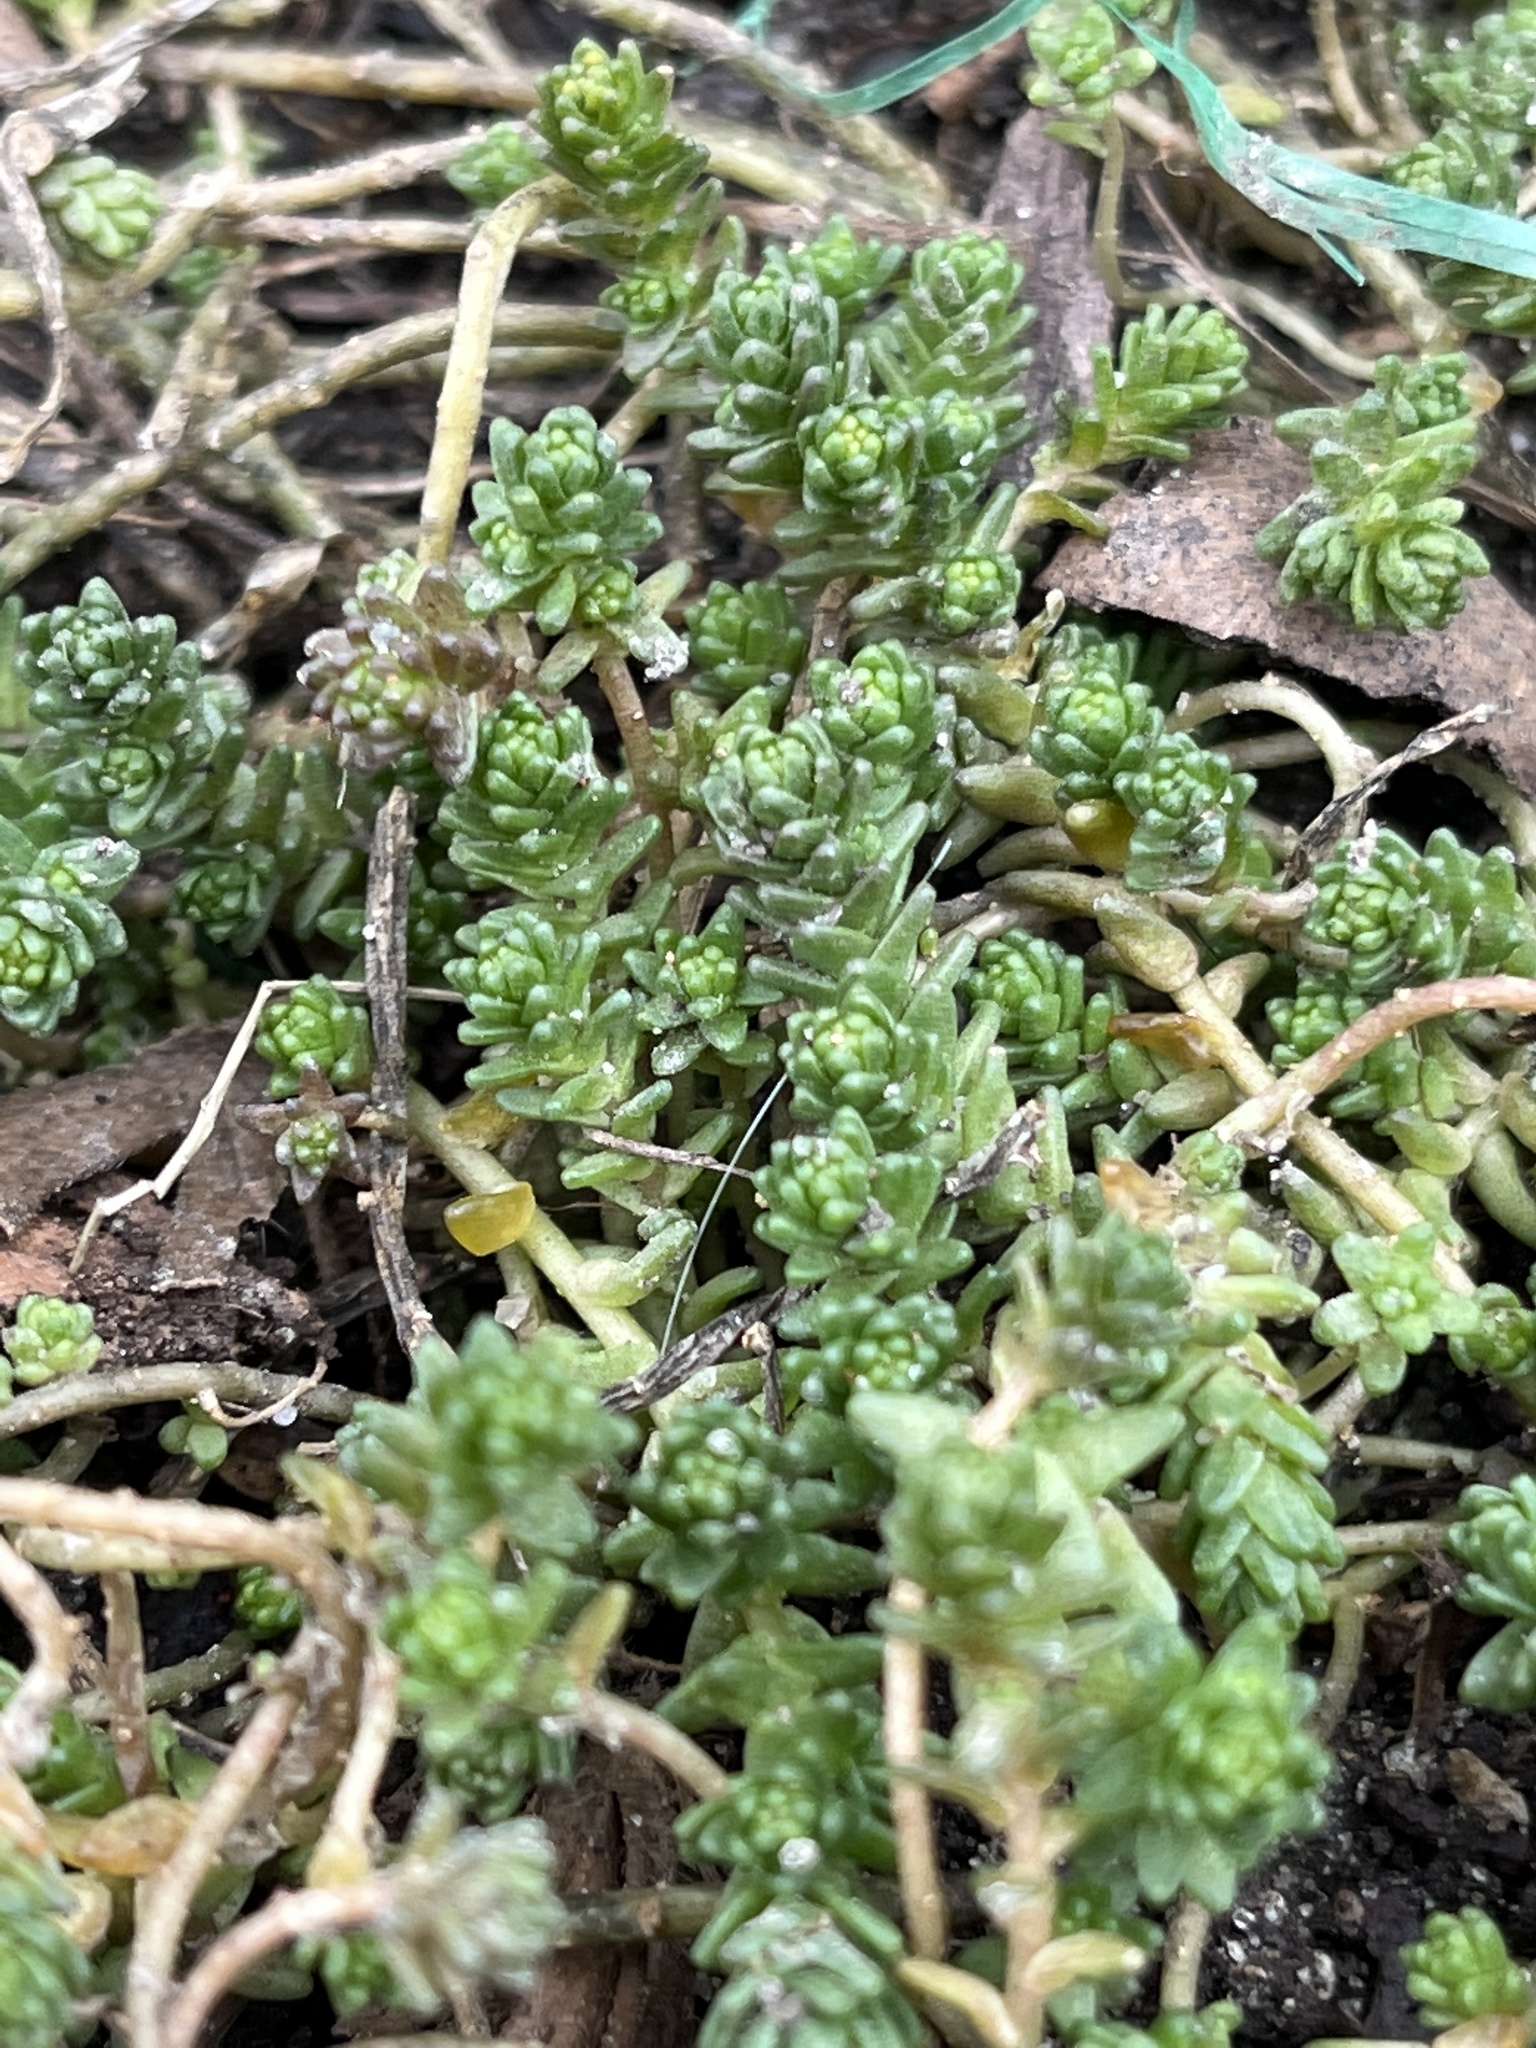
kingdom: Plantae
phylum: Tracheophyta
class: Magnoliopsida
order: Saxifragales
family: Crassulaceae
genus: Sedum
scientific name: Sedum acre
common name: Biting stonecrop
